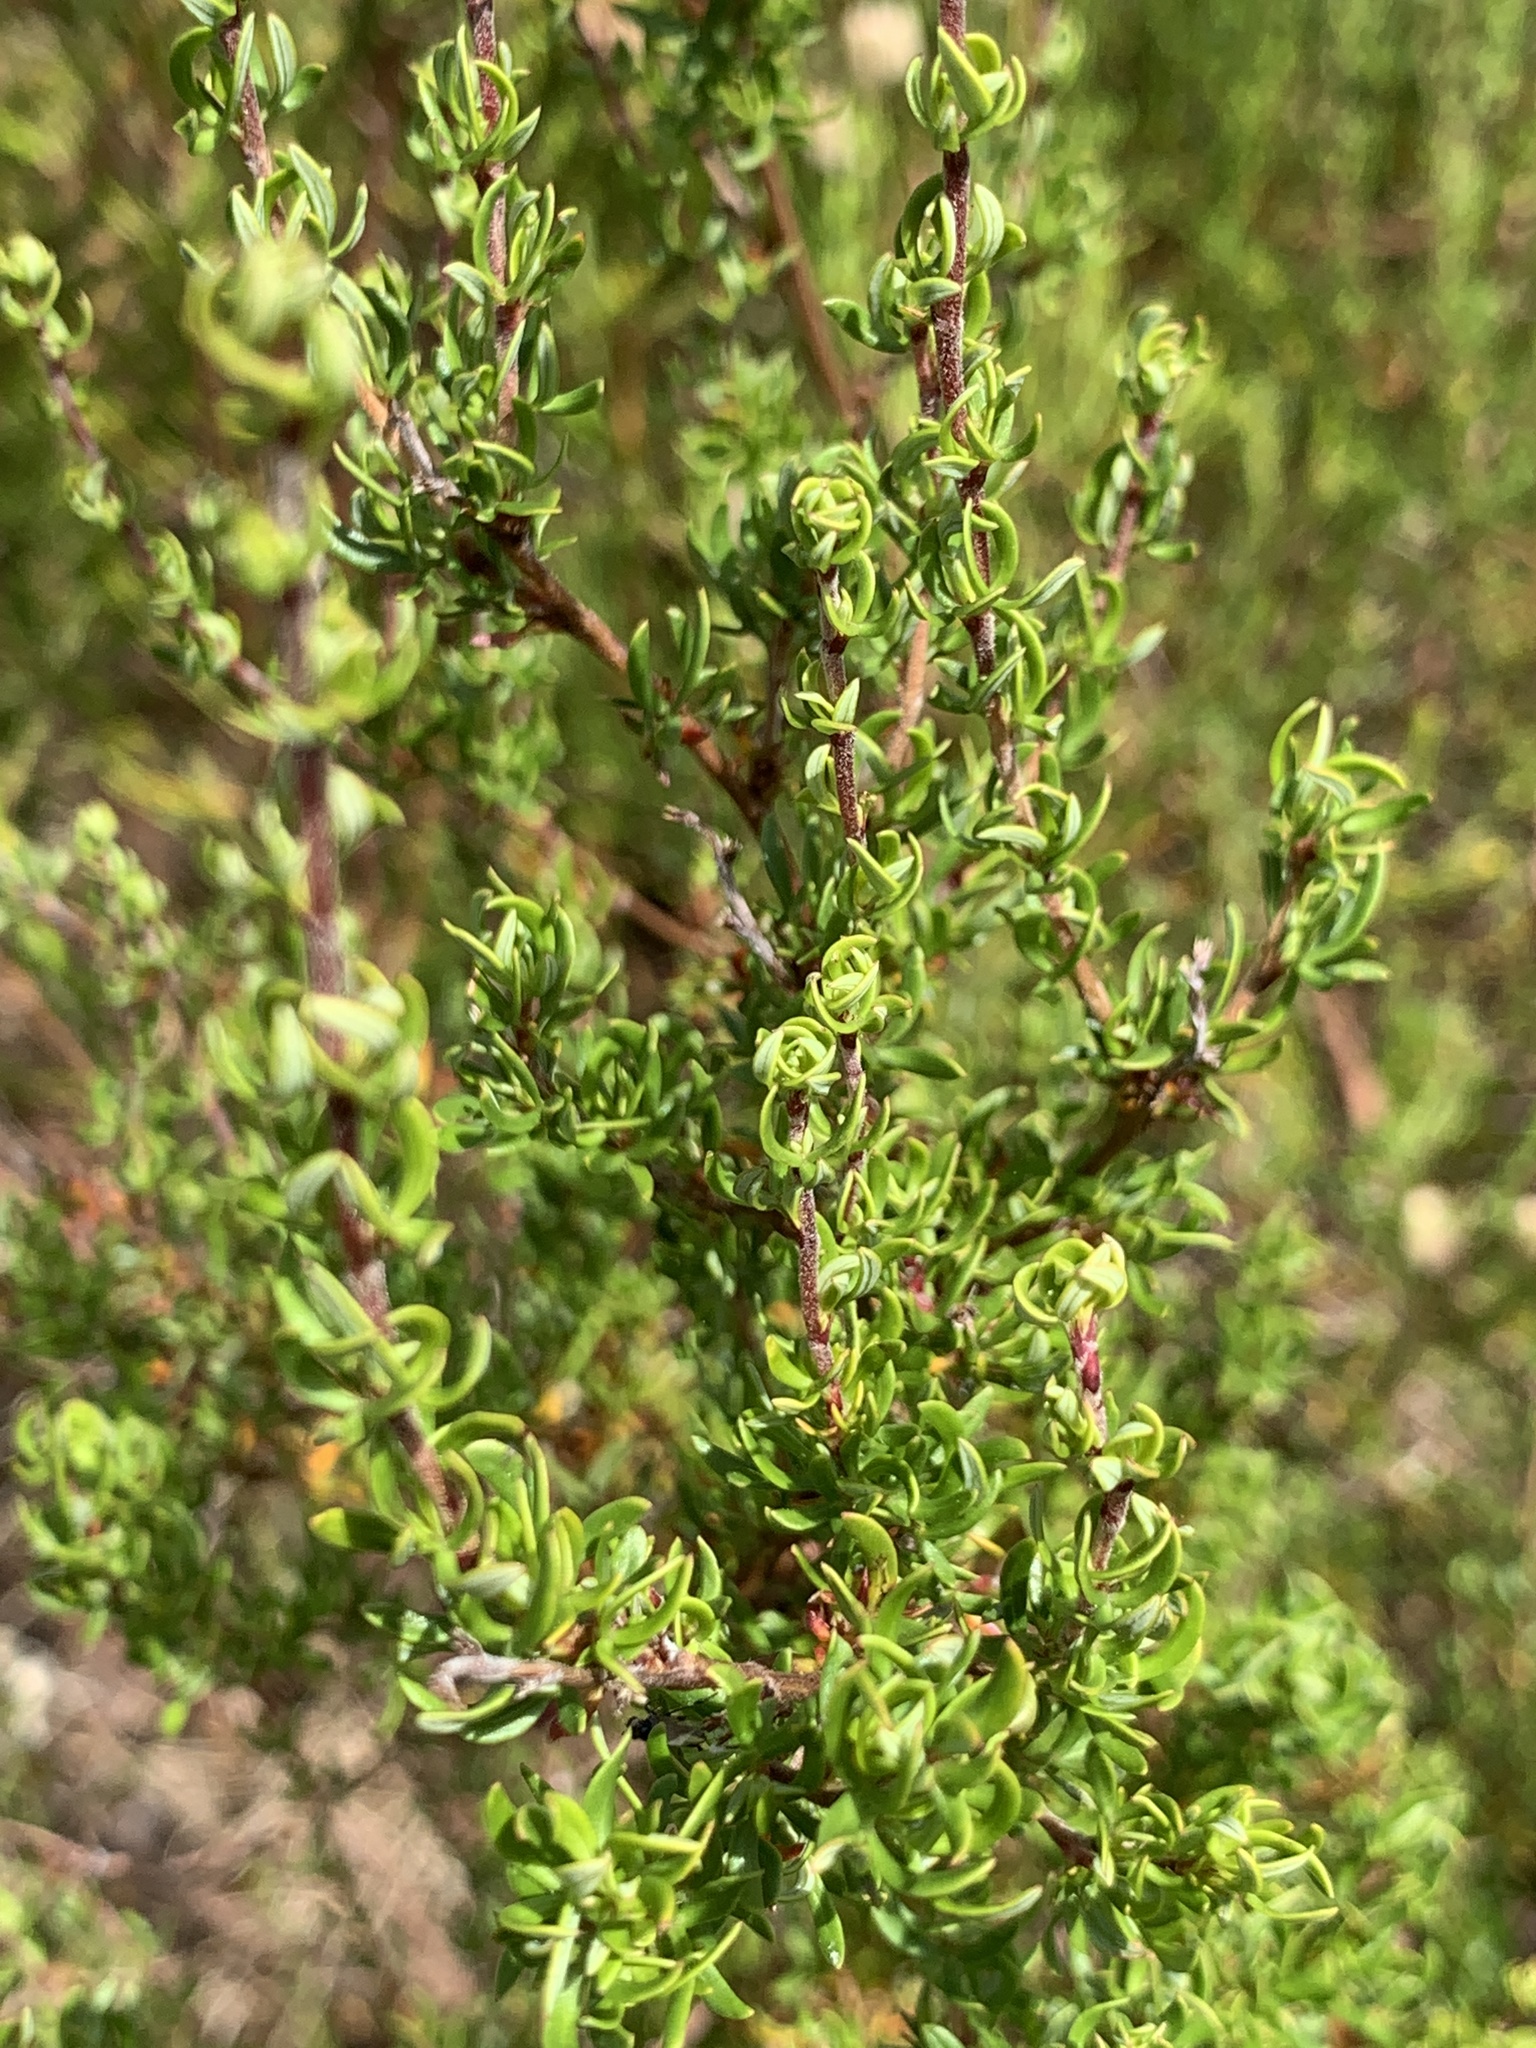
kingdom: Plantae
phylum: Tracheophyta
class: Magnoliopsida
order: Rosales
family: Rosaceae
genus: Cliffortia
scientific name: Cliffortia falcata
